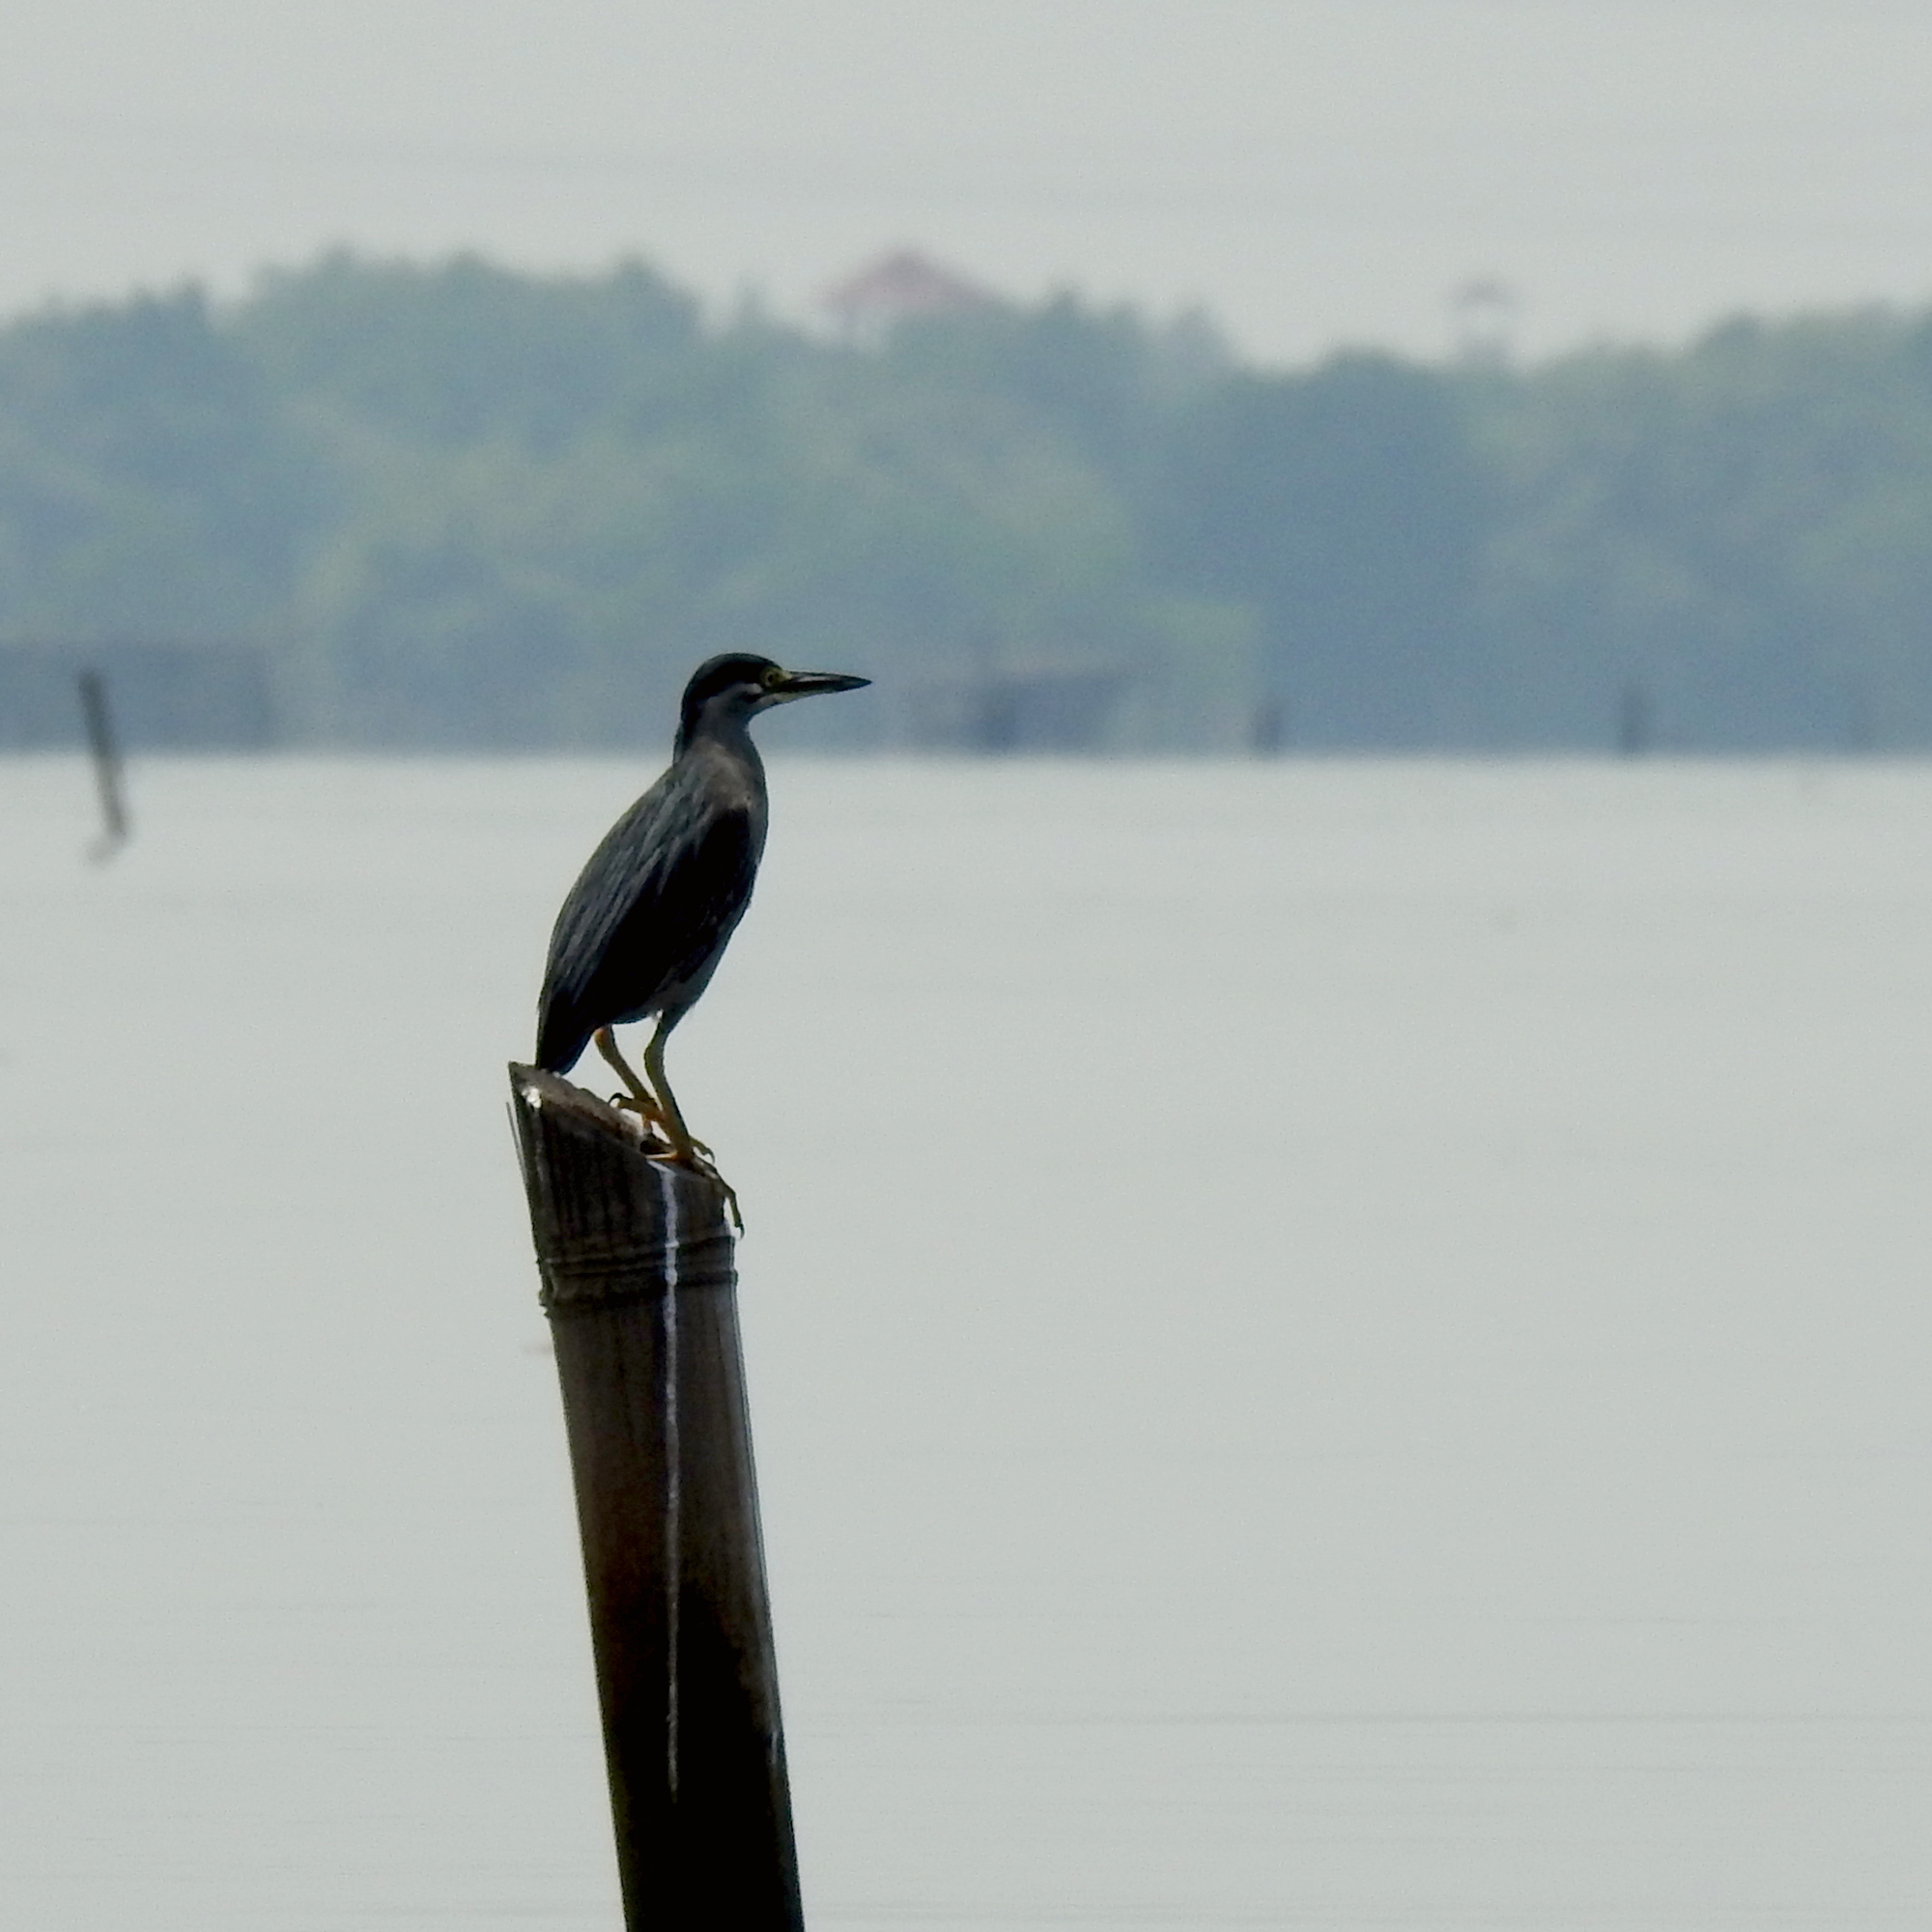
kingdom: Animalia
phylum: Chordata
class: Aves
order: Pelecaniformes
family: Ardeidae
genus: Butorides
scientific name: Butorides striata
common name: Striated heron
